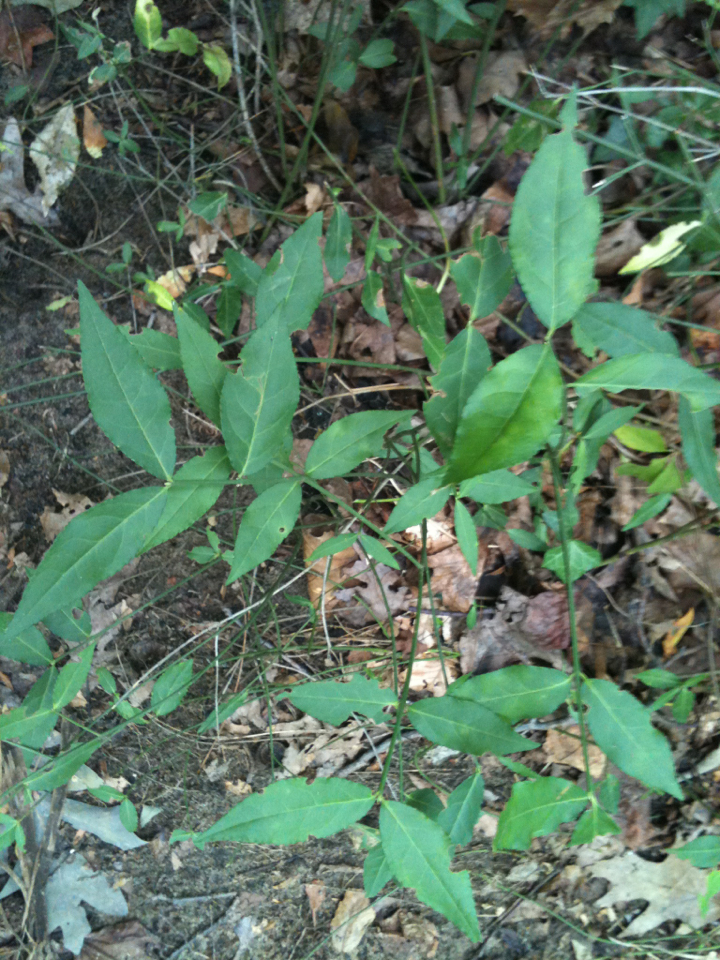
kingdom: Plantae
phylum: Tracheophyta
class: Magnoliopsida
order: Celastrales
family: Celastraceae
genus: Euonymus
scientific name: Euonymus americanus
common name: Bursting-heart
